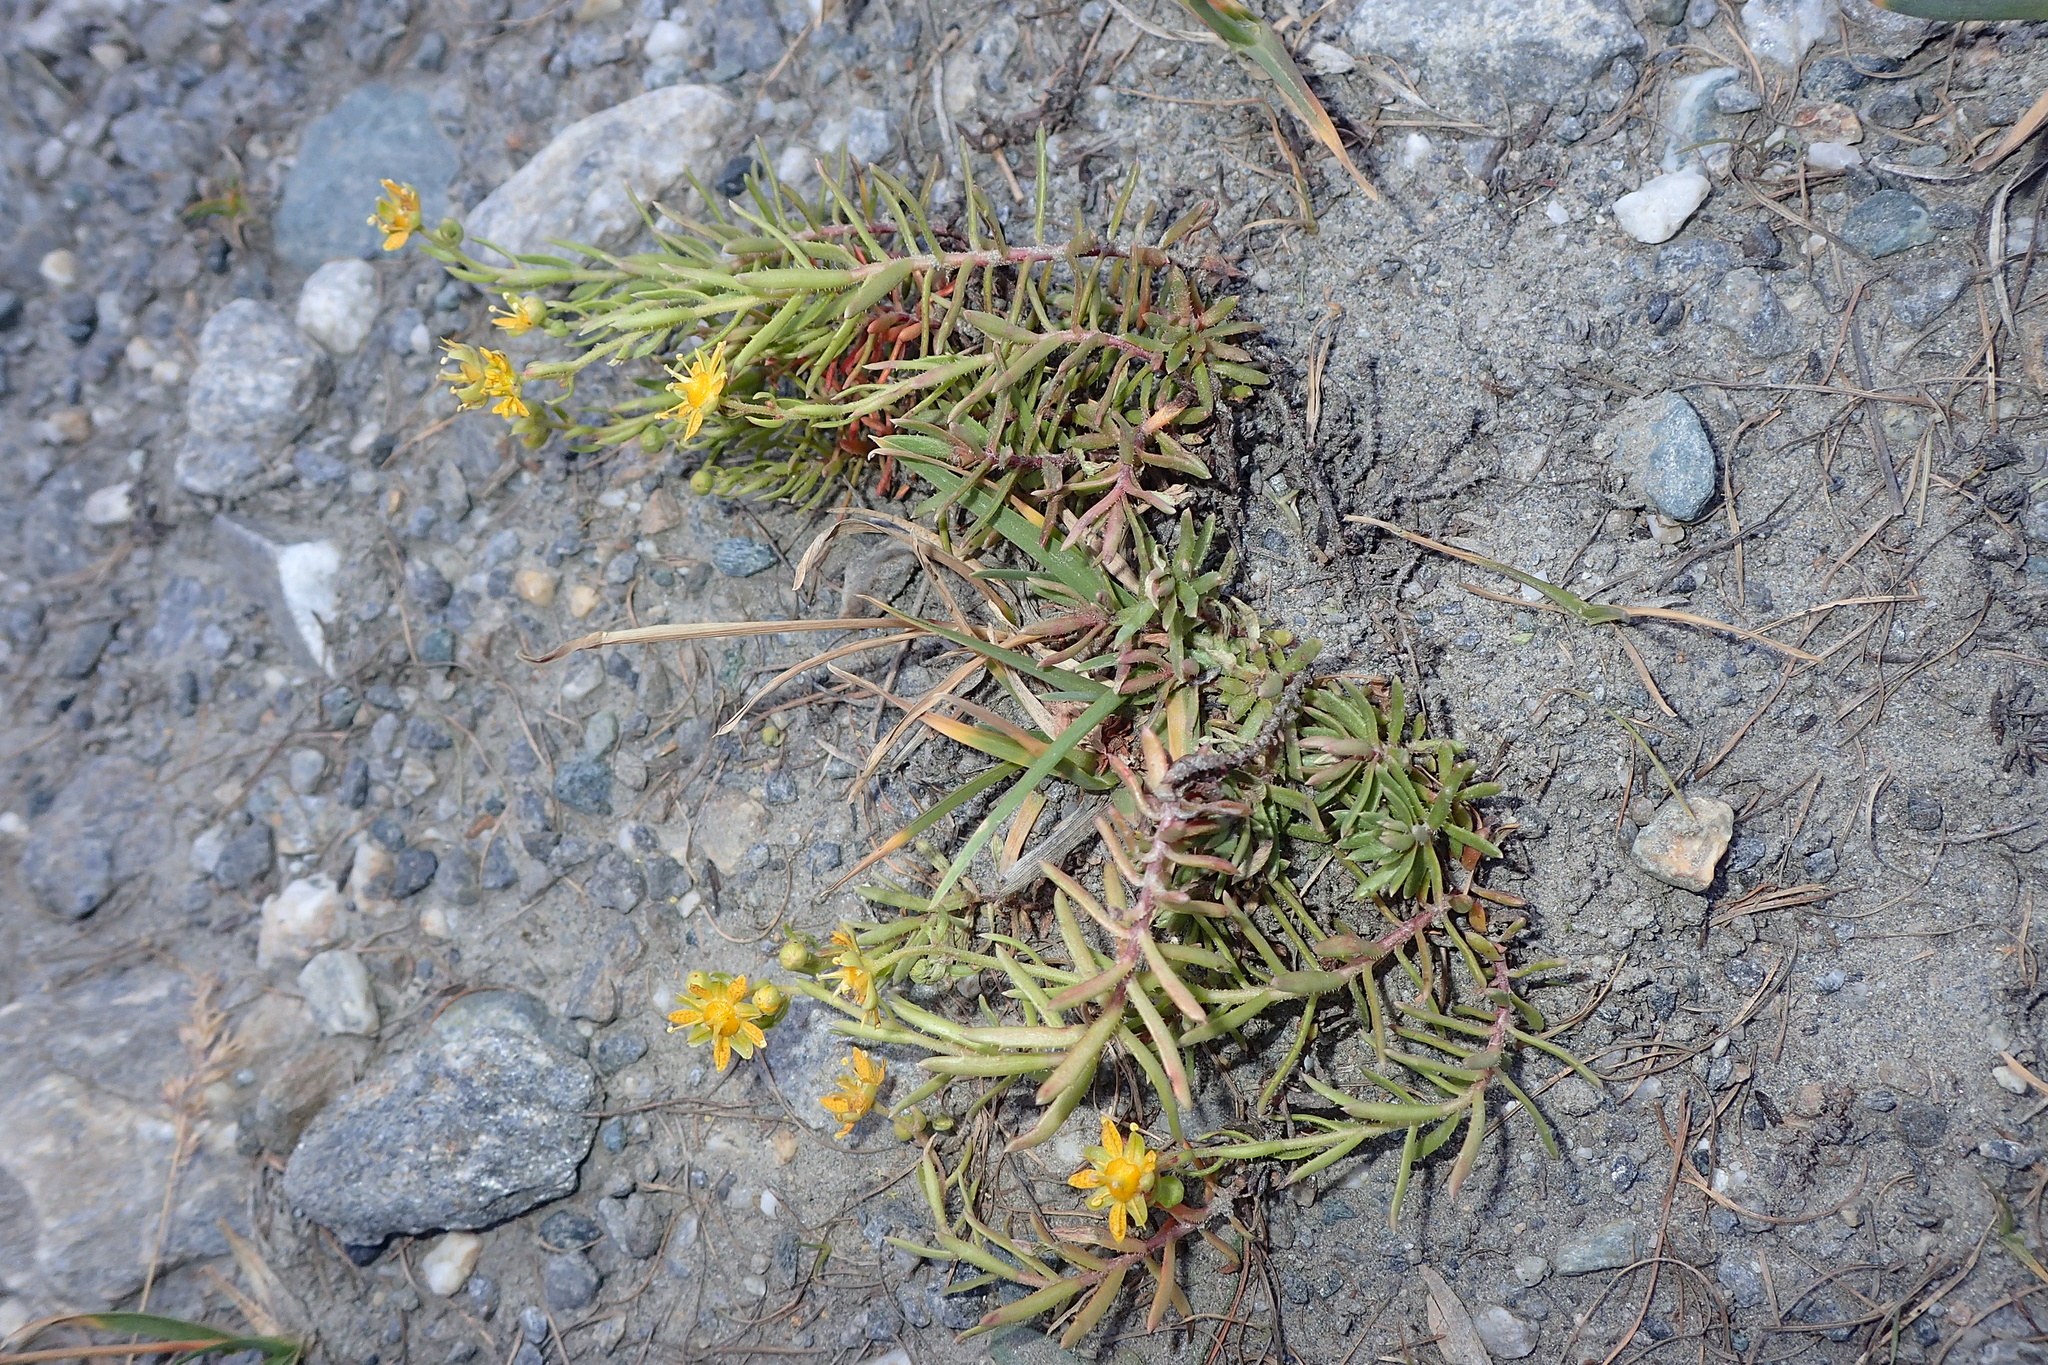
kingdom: Plantae
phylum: Tracheophyta
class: Magnoliopsida
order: Saxifragales
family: Saxifragaceae
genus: Saxifraga
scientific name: Saxifraga aizoides
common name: Yellow mountain saxifrage
